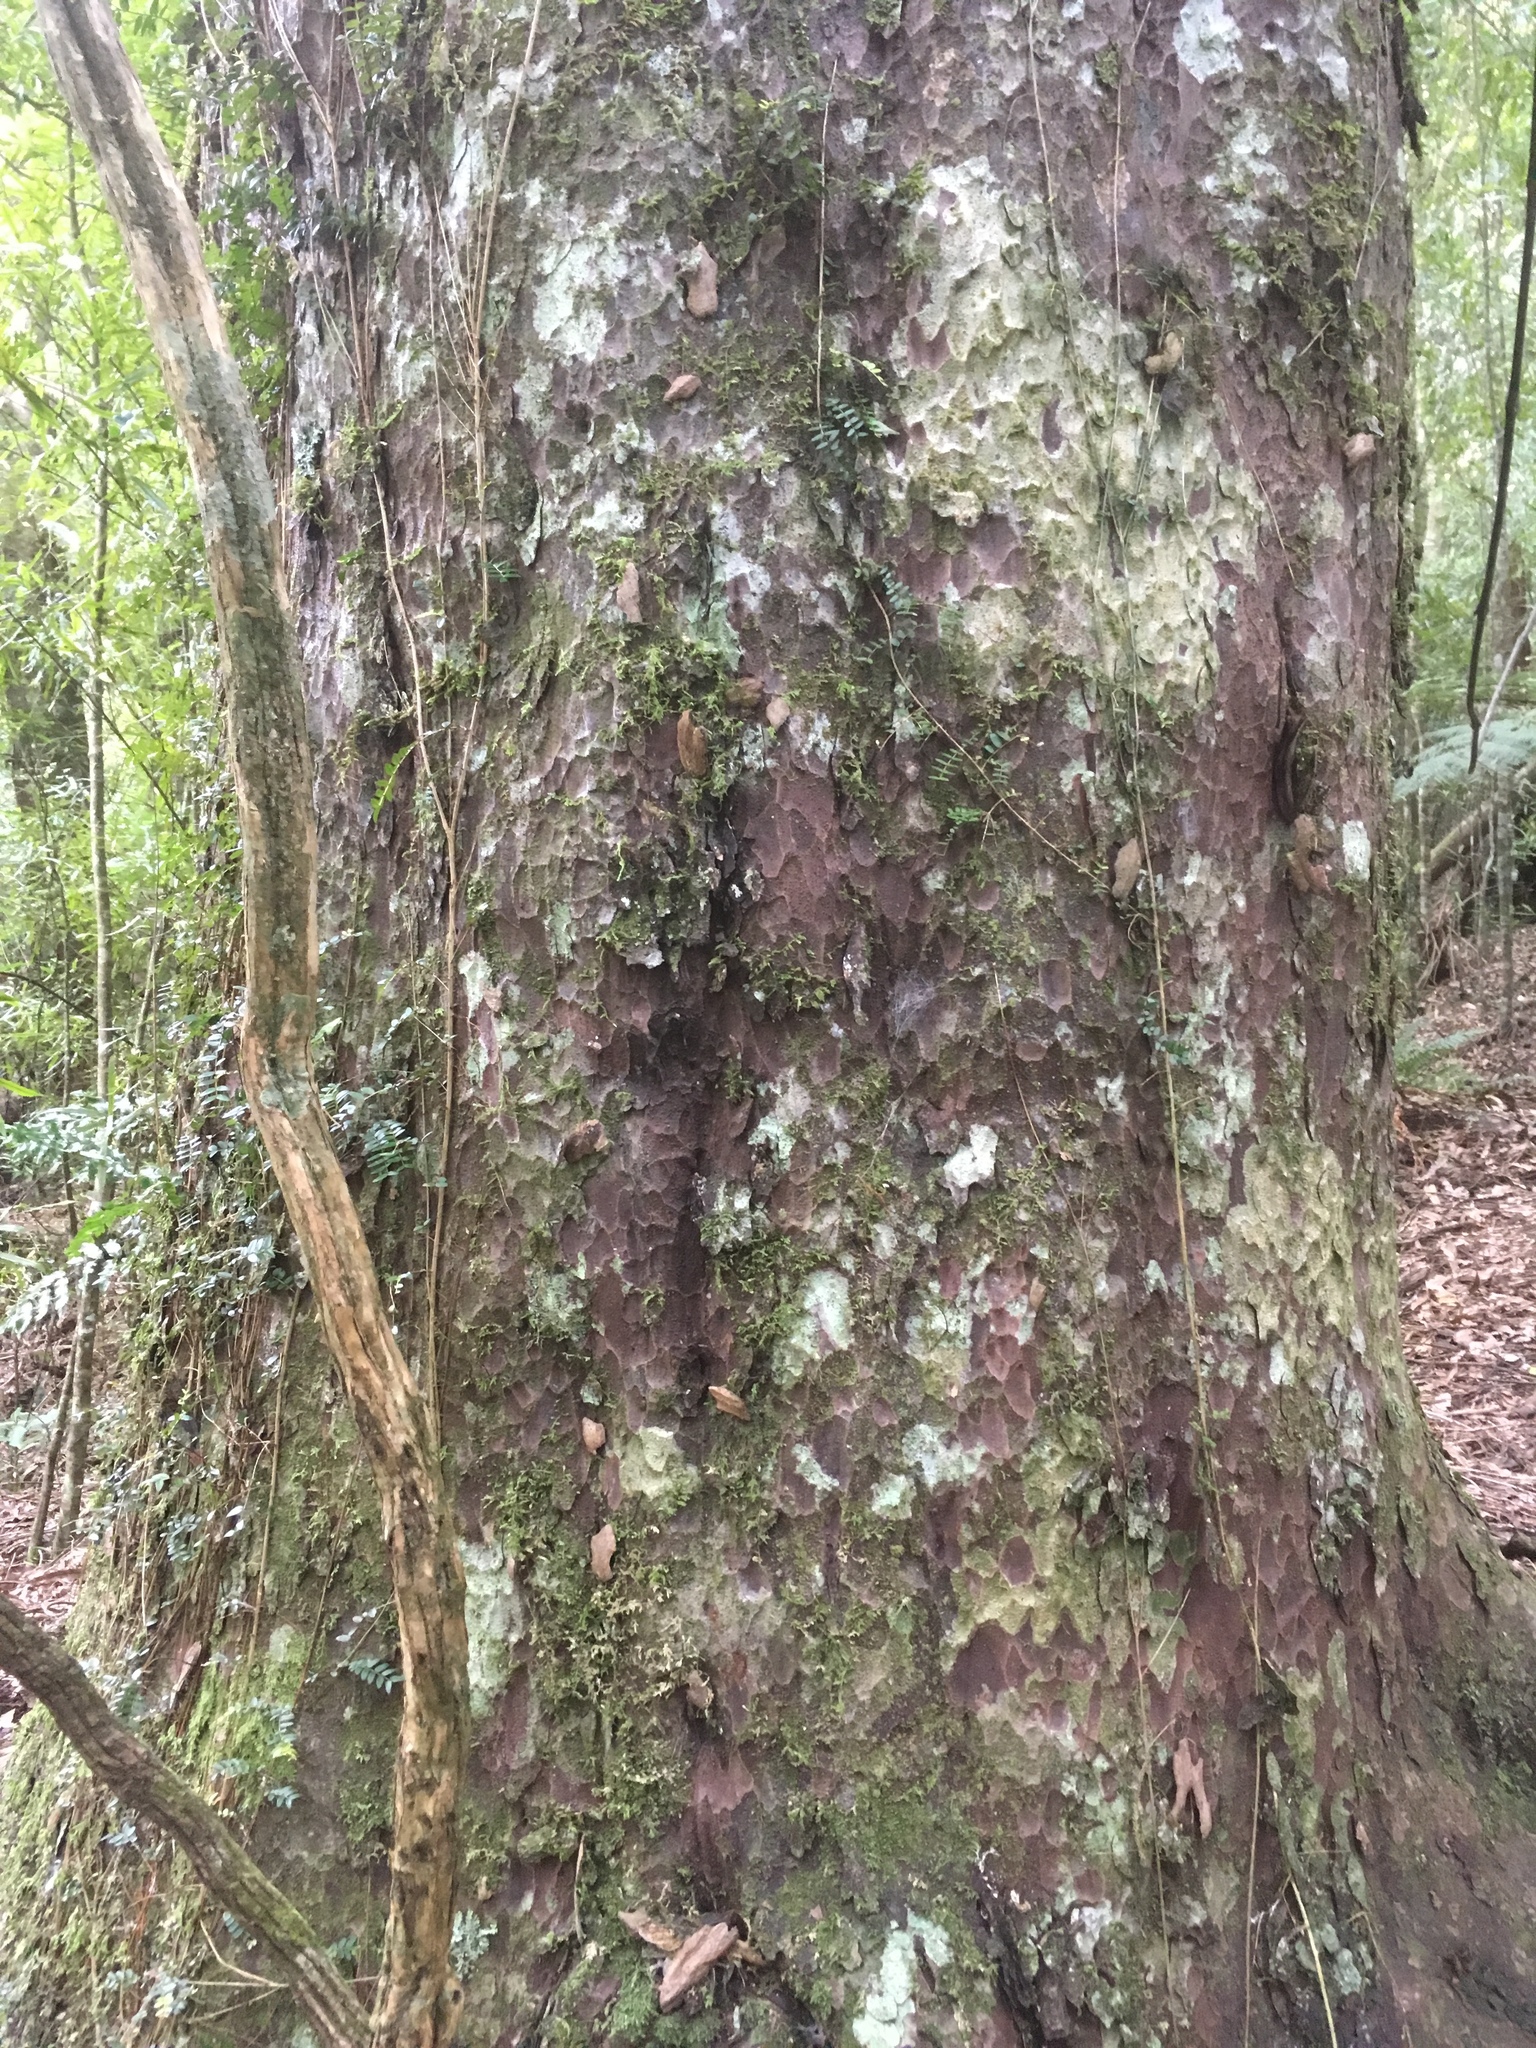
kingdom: Plantae
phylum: Tracheophyta
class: Pinopsida
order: Pinales
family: Podocarpaceae
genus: Prumnopitys
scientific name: Prumnopitys taxifolia
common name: Matai
